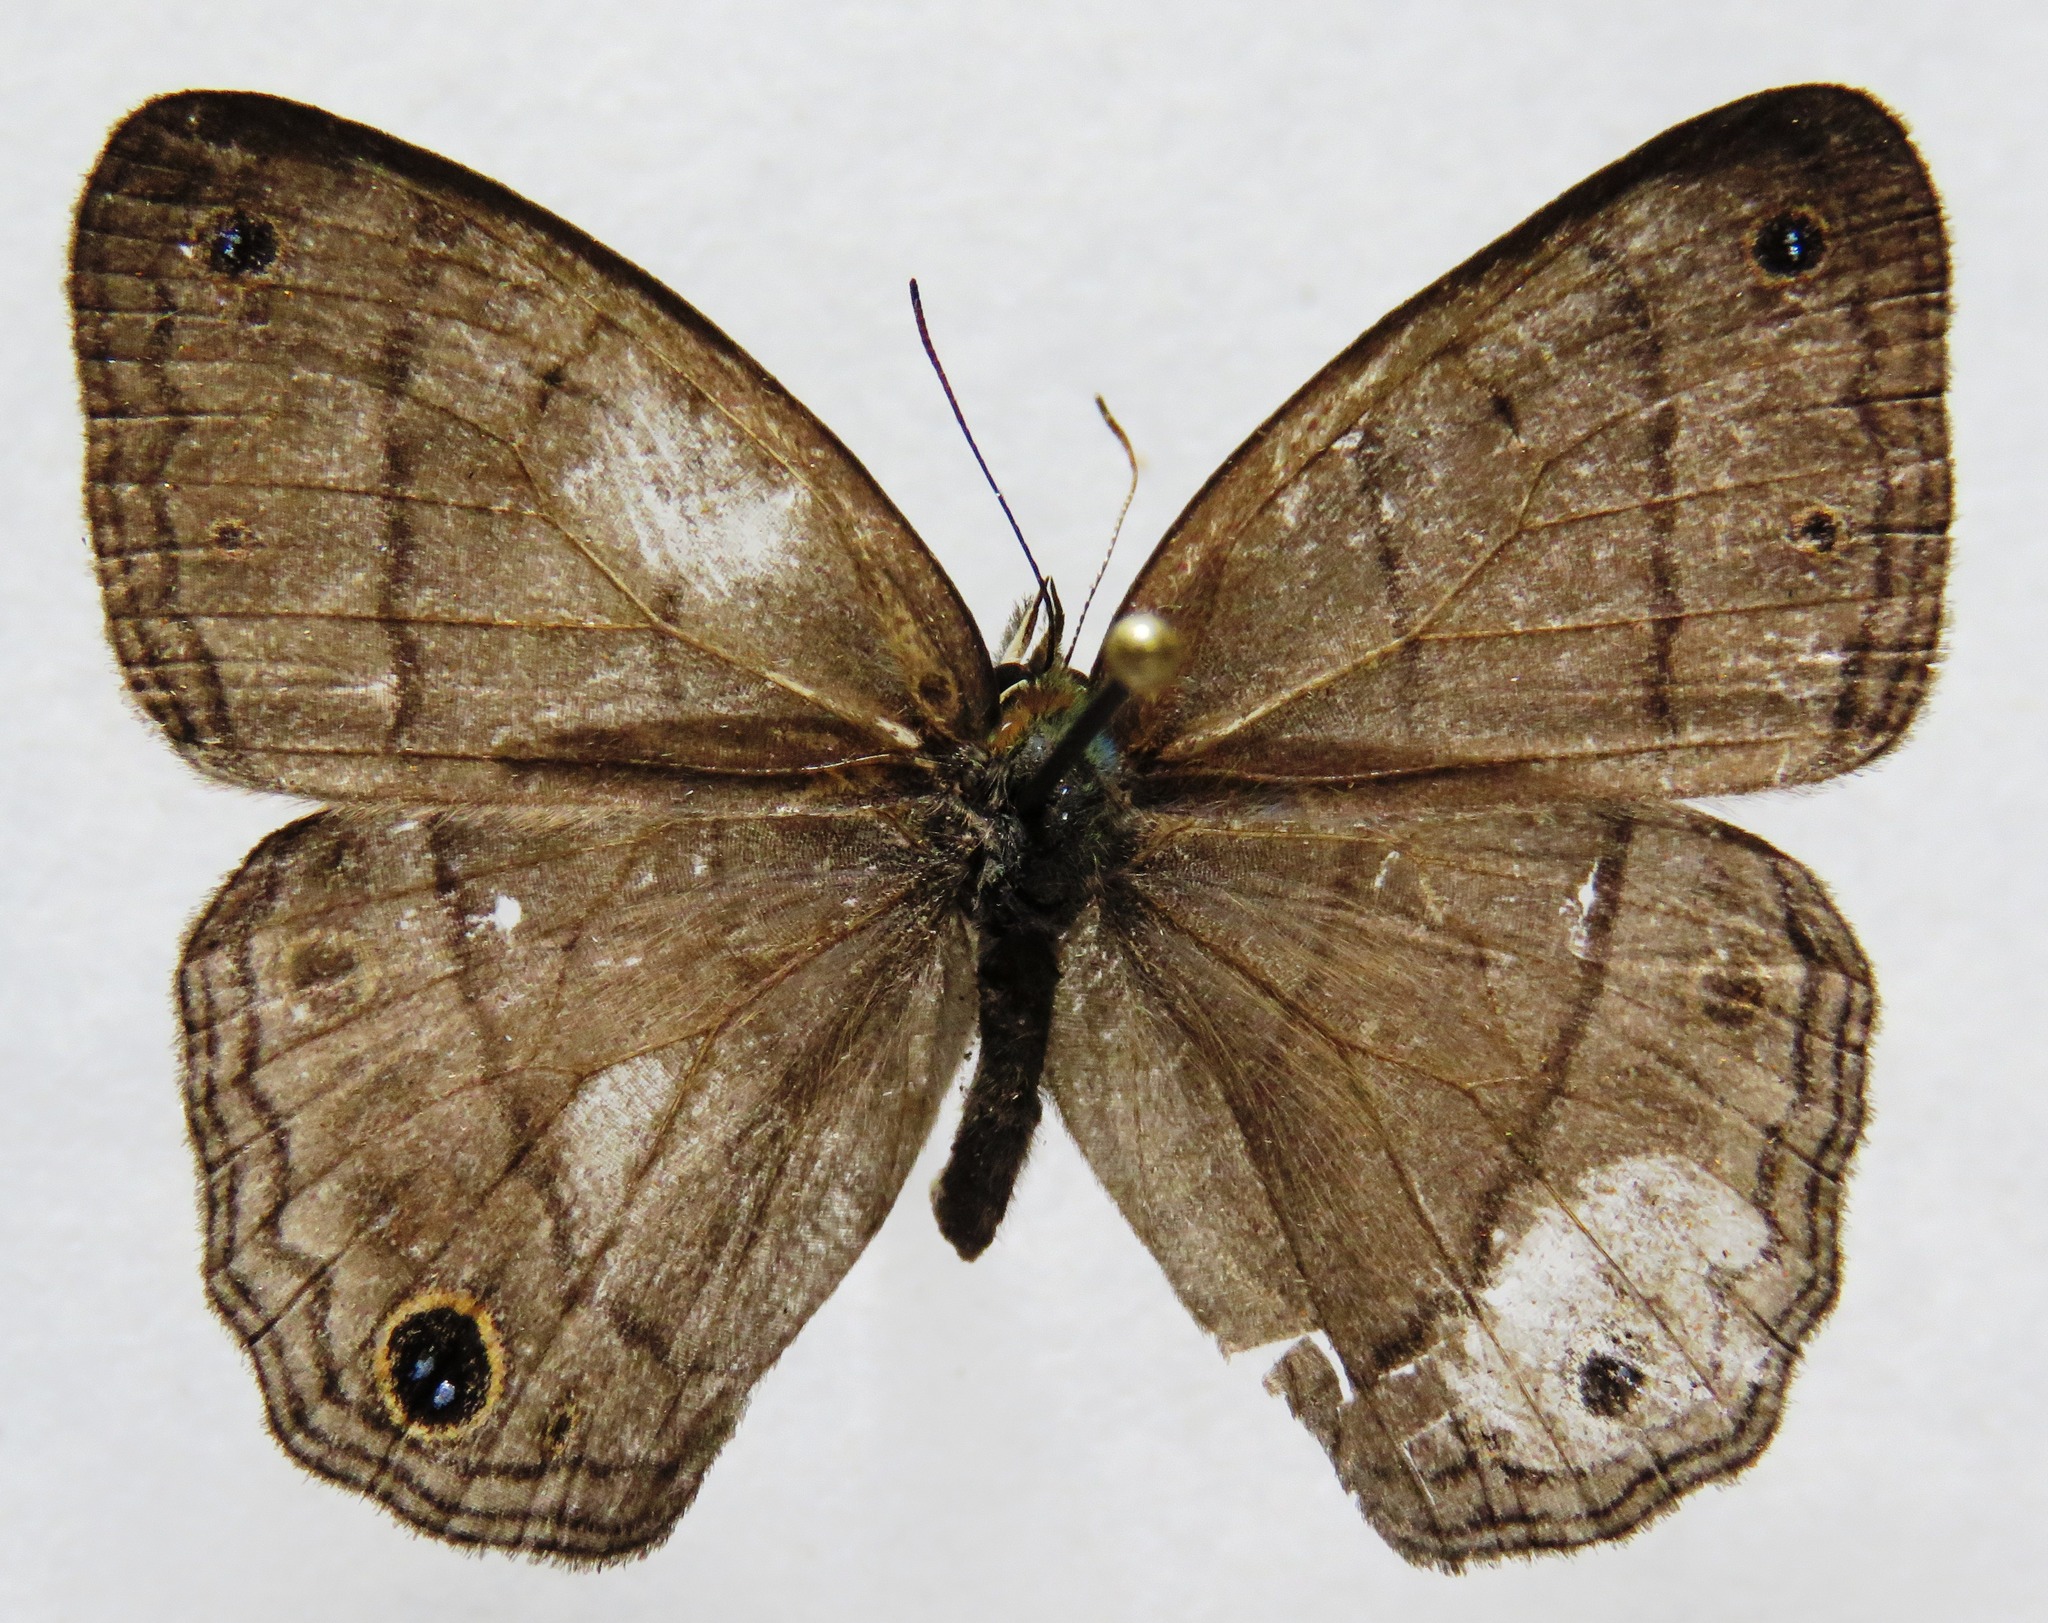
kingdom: Animalia
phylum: Arthropoda
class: Insecta
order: Lepidoptera
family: Nymphalidae
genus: Euptychia
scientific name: Euptychia Cissia pompilia
